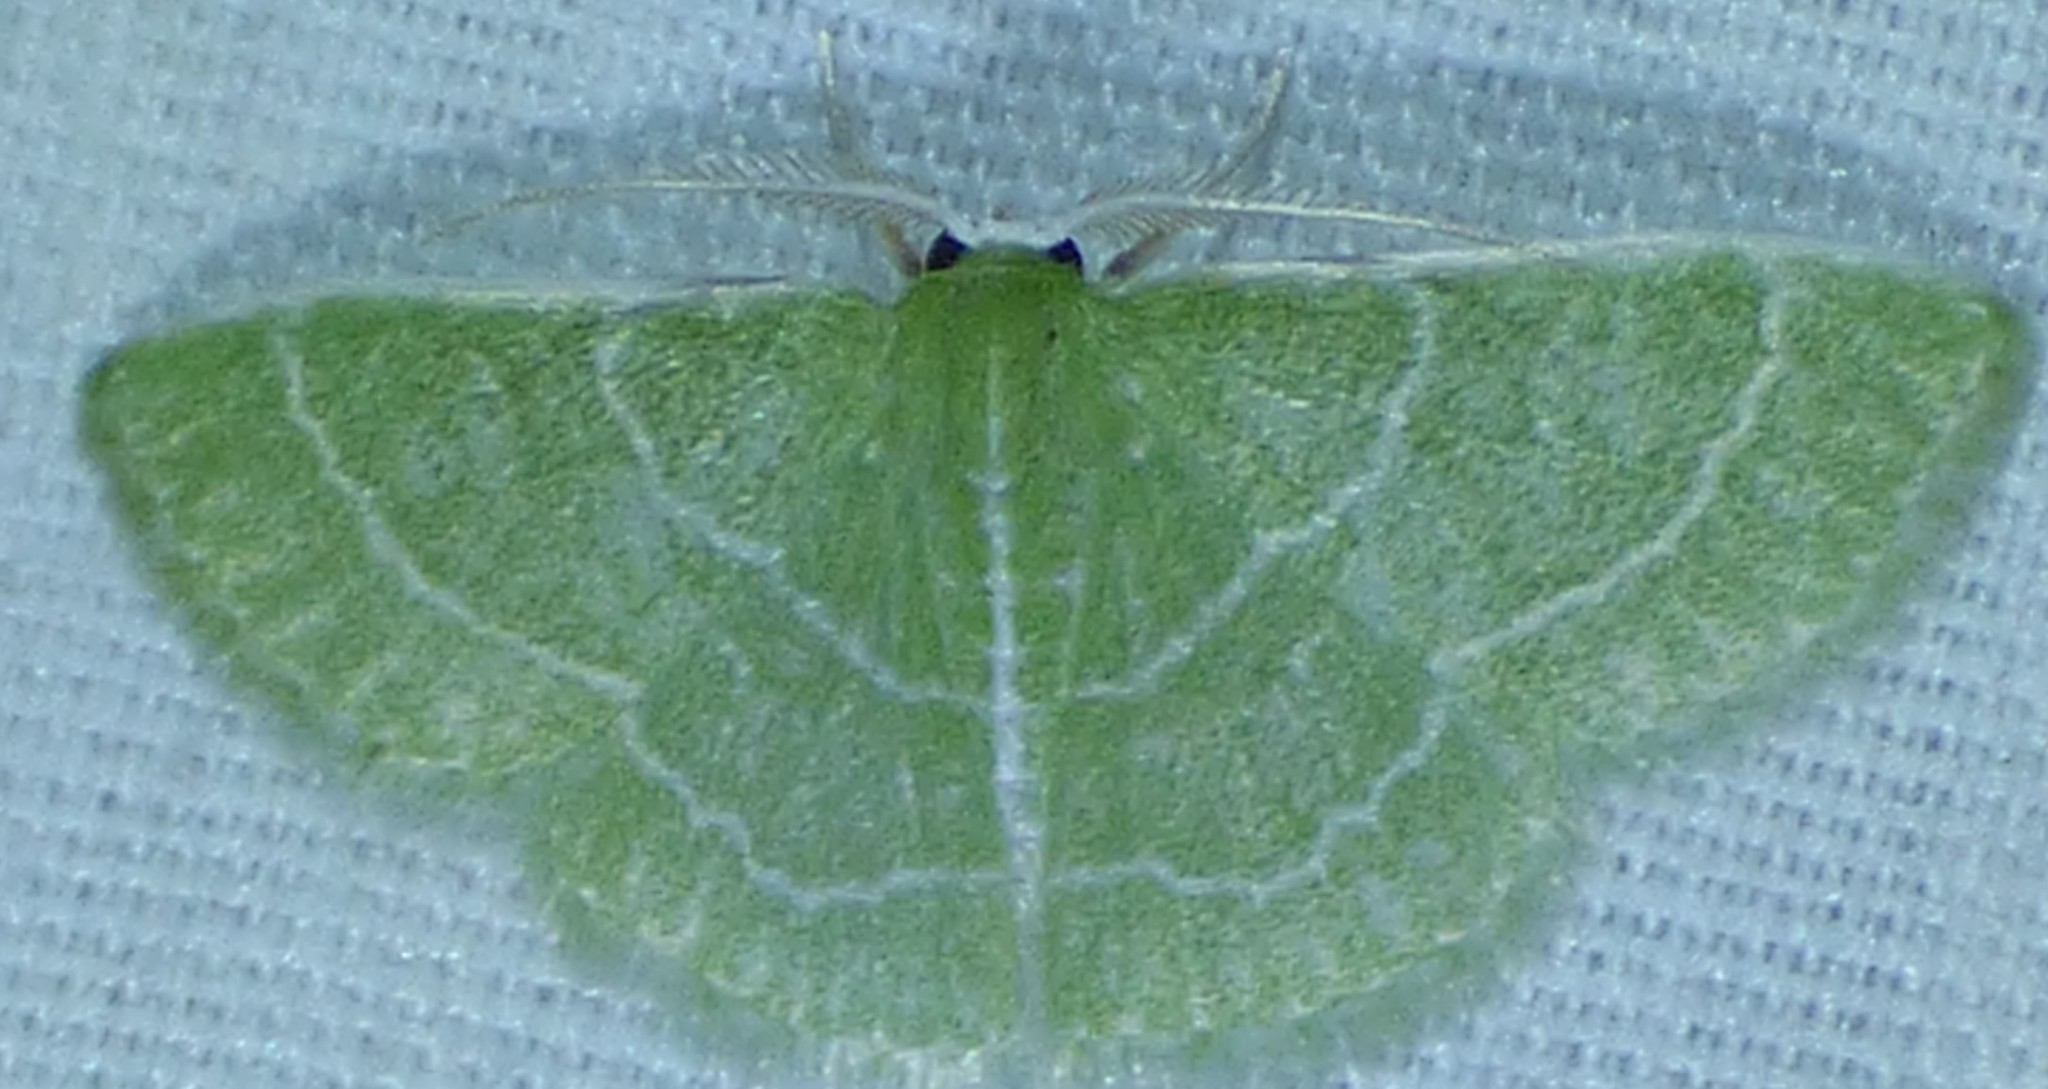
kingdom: Animalia
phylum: Arthropoda
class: Insecta
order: Lepidoptera
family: Geometridae
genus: Synchlora
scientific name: Synchlora aerata
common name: Wavy-lined emerald
